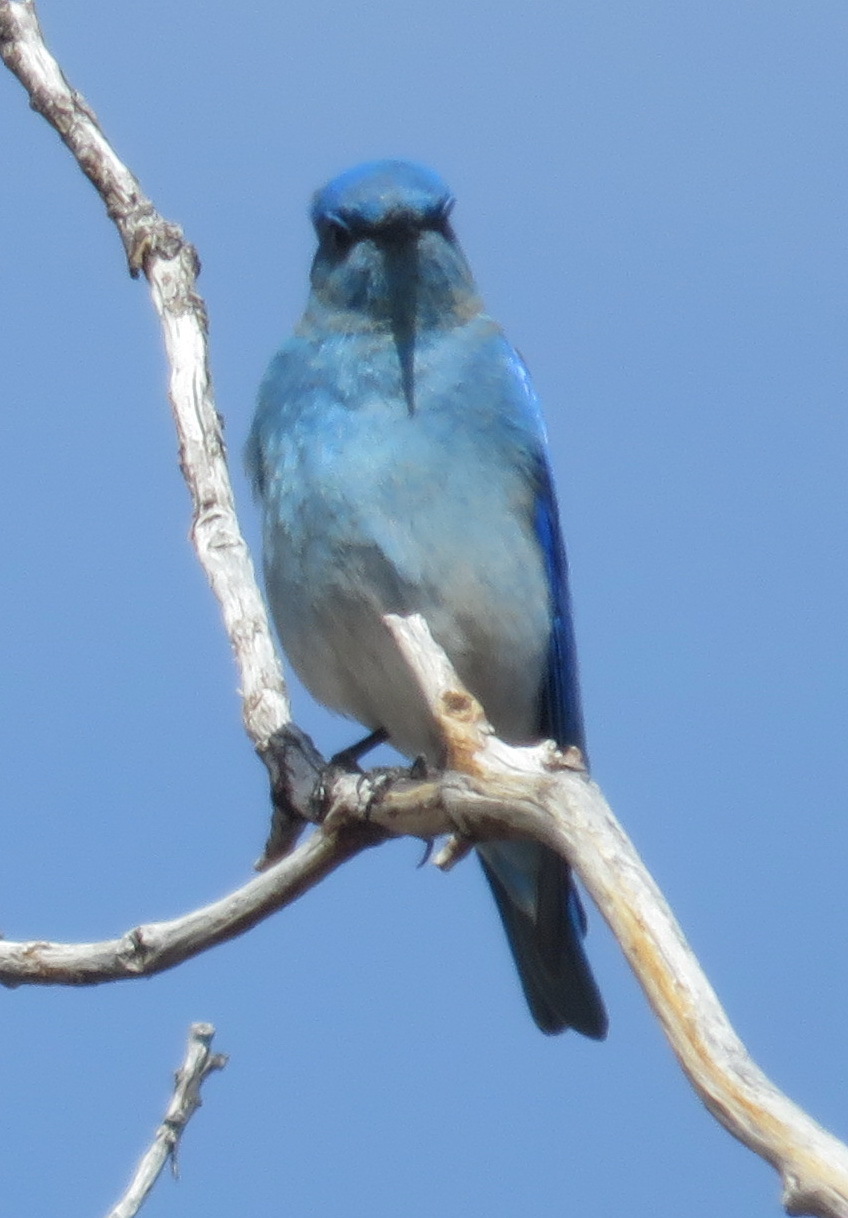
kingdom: Animalia
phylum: Chordata
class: Aves
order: Passeriformes
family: Turdidae
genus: Sialia
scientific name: Sialia currucoides
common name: Mountain bluebird
